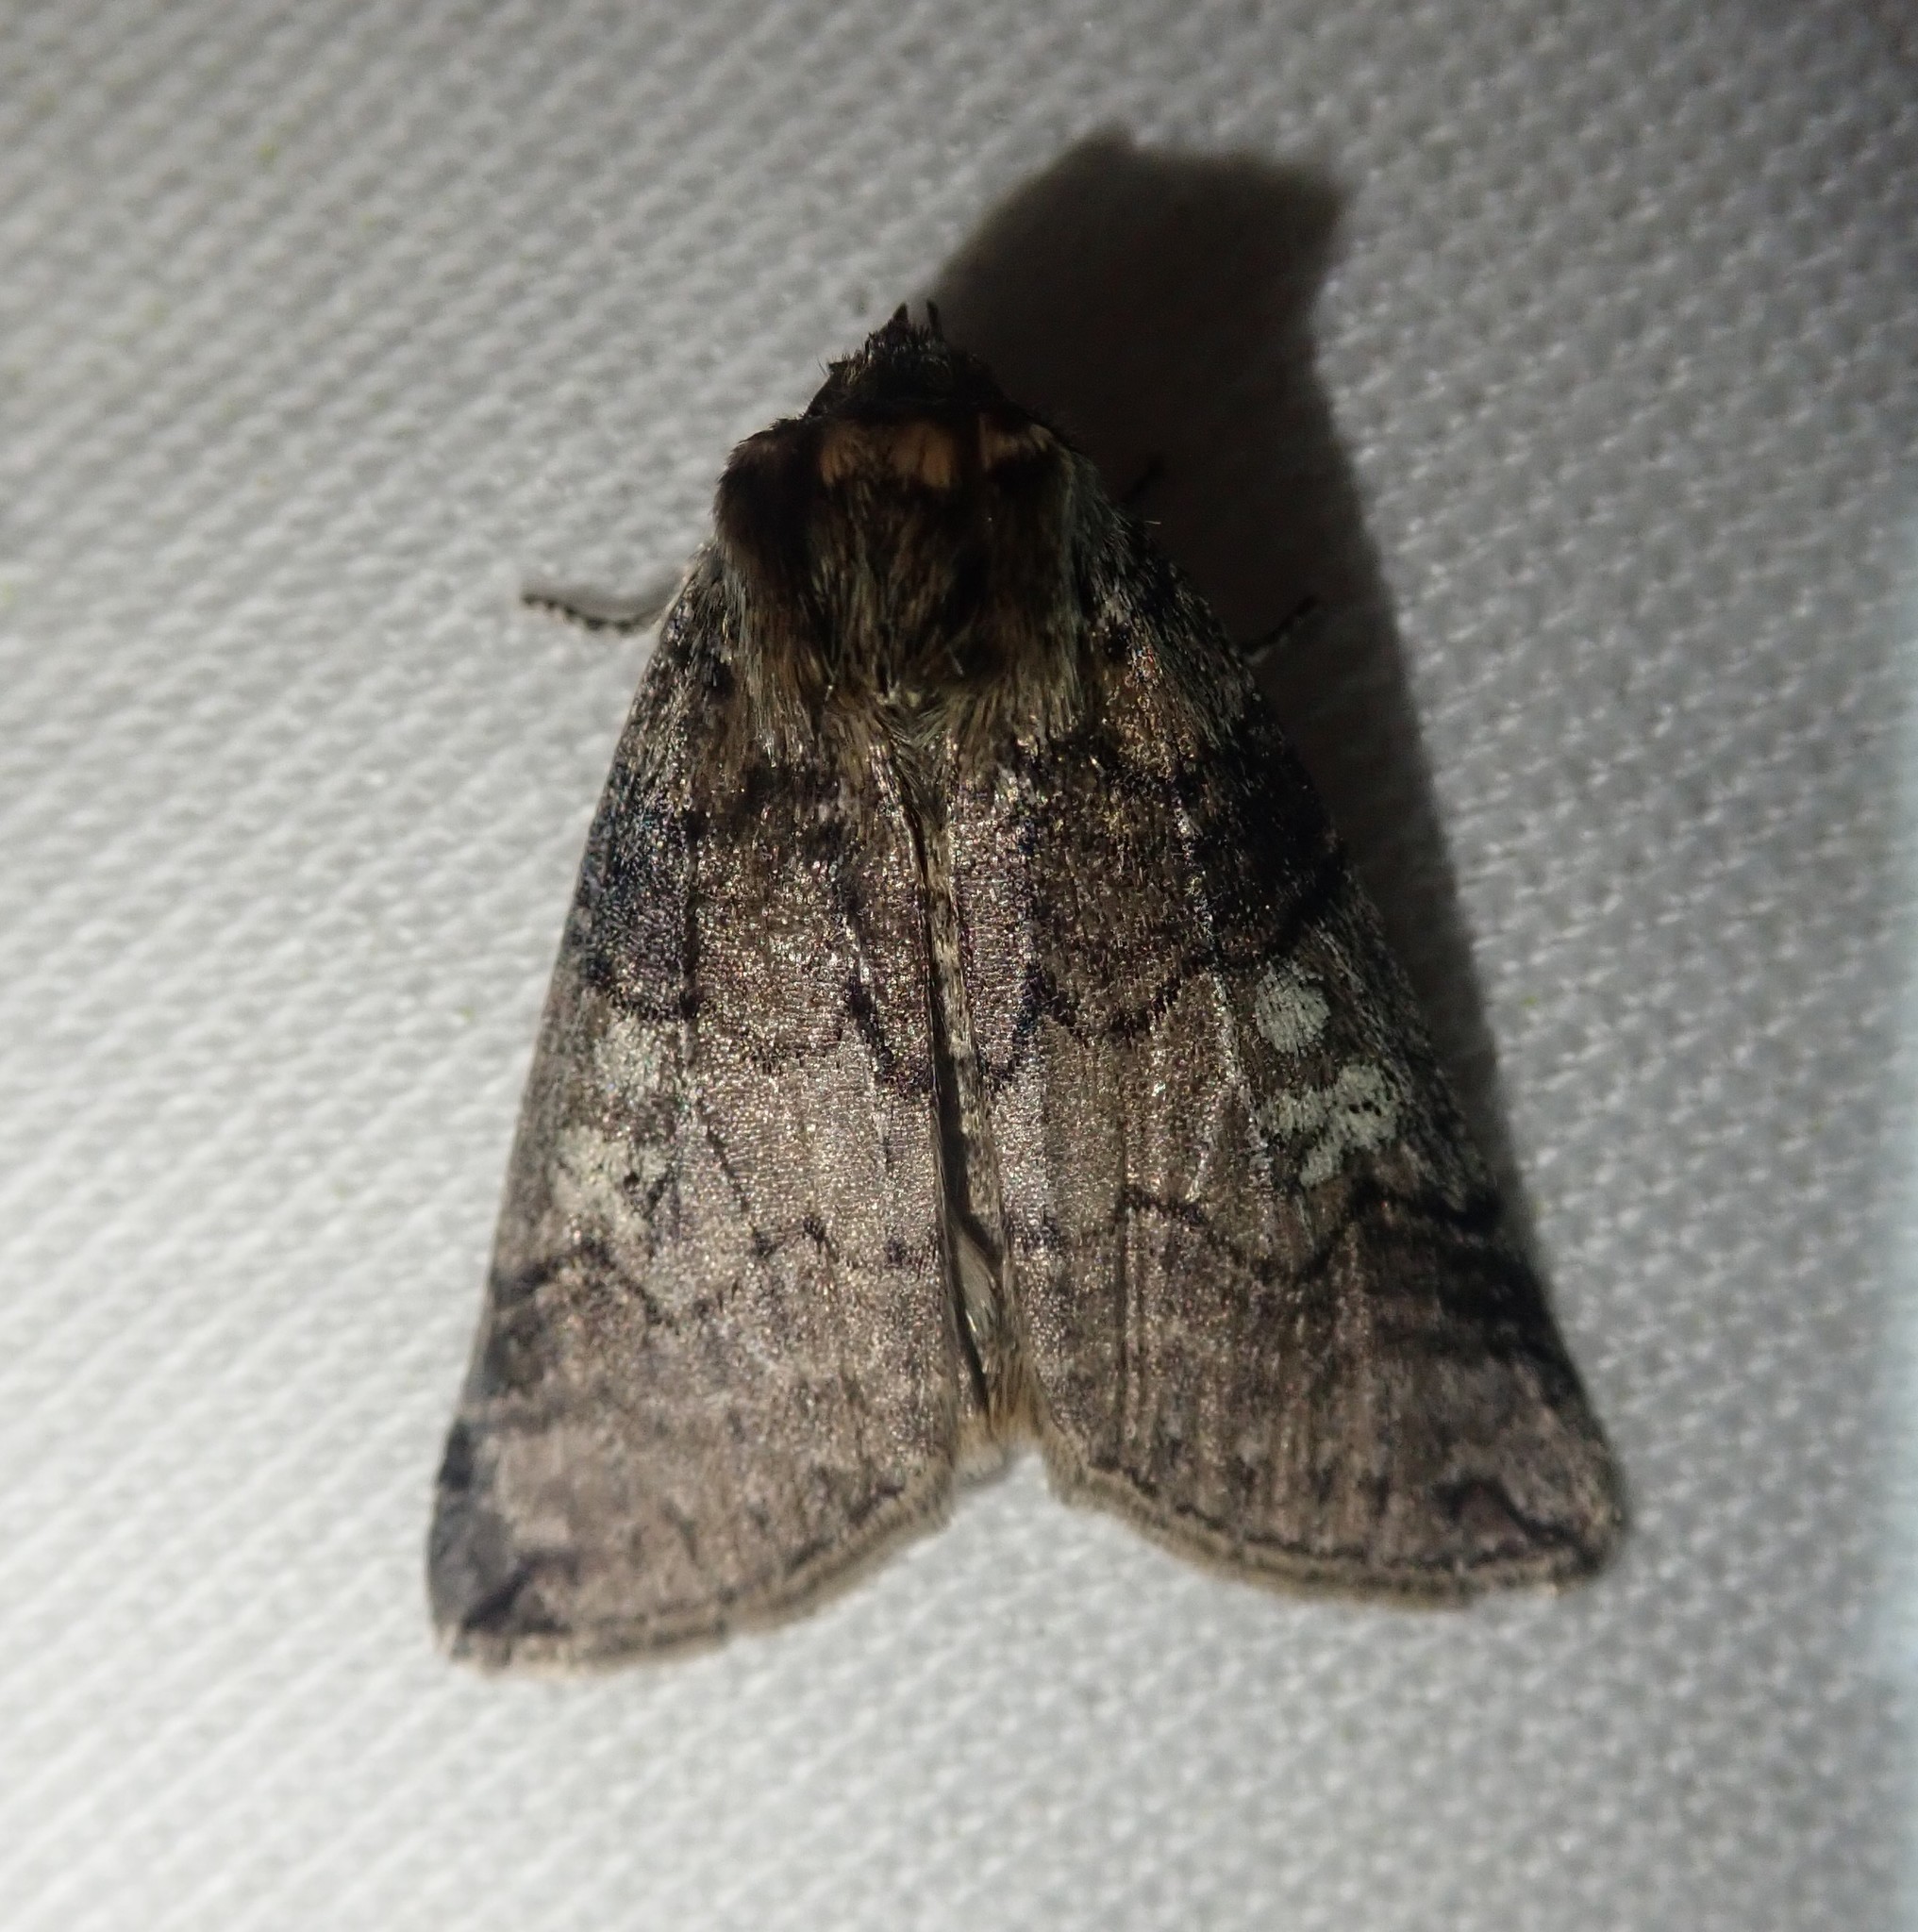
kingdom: Animalia
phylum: Arthropoda
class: Insecta
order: Lepidoptera
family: Drepanidae
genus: Tethea
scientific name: Tethea or
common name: Poplar lutestring
